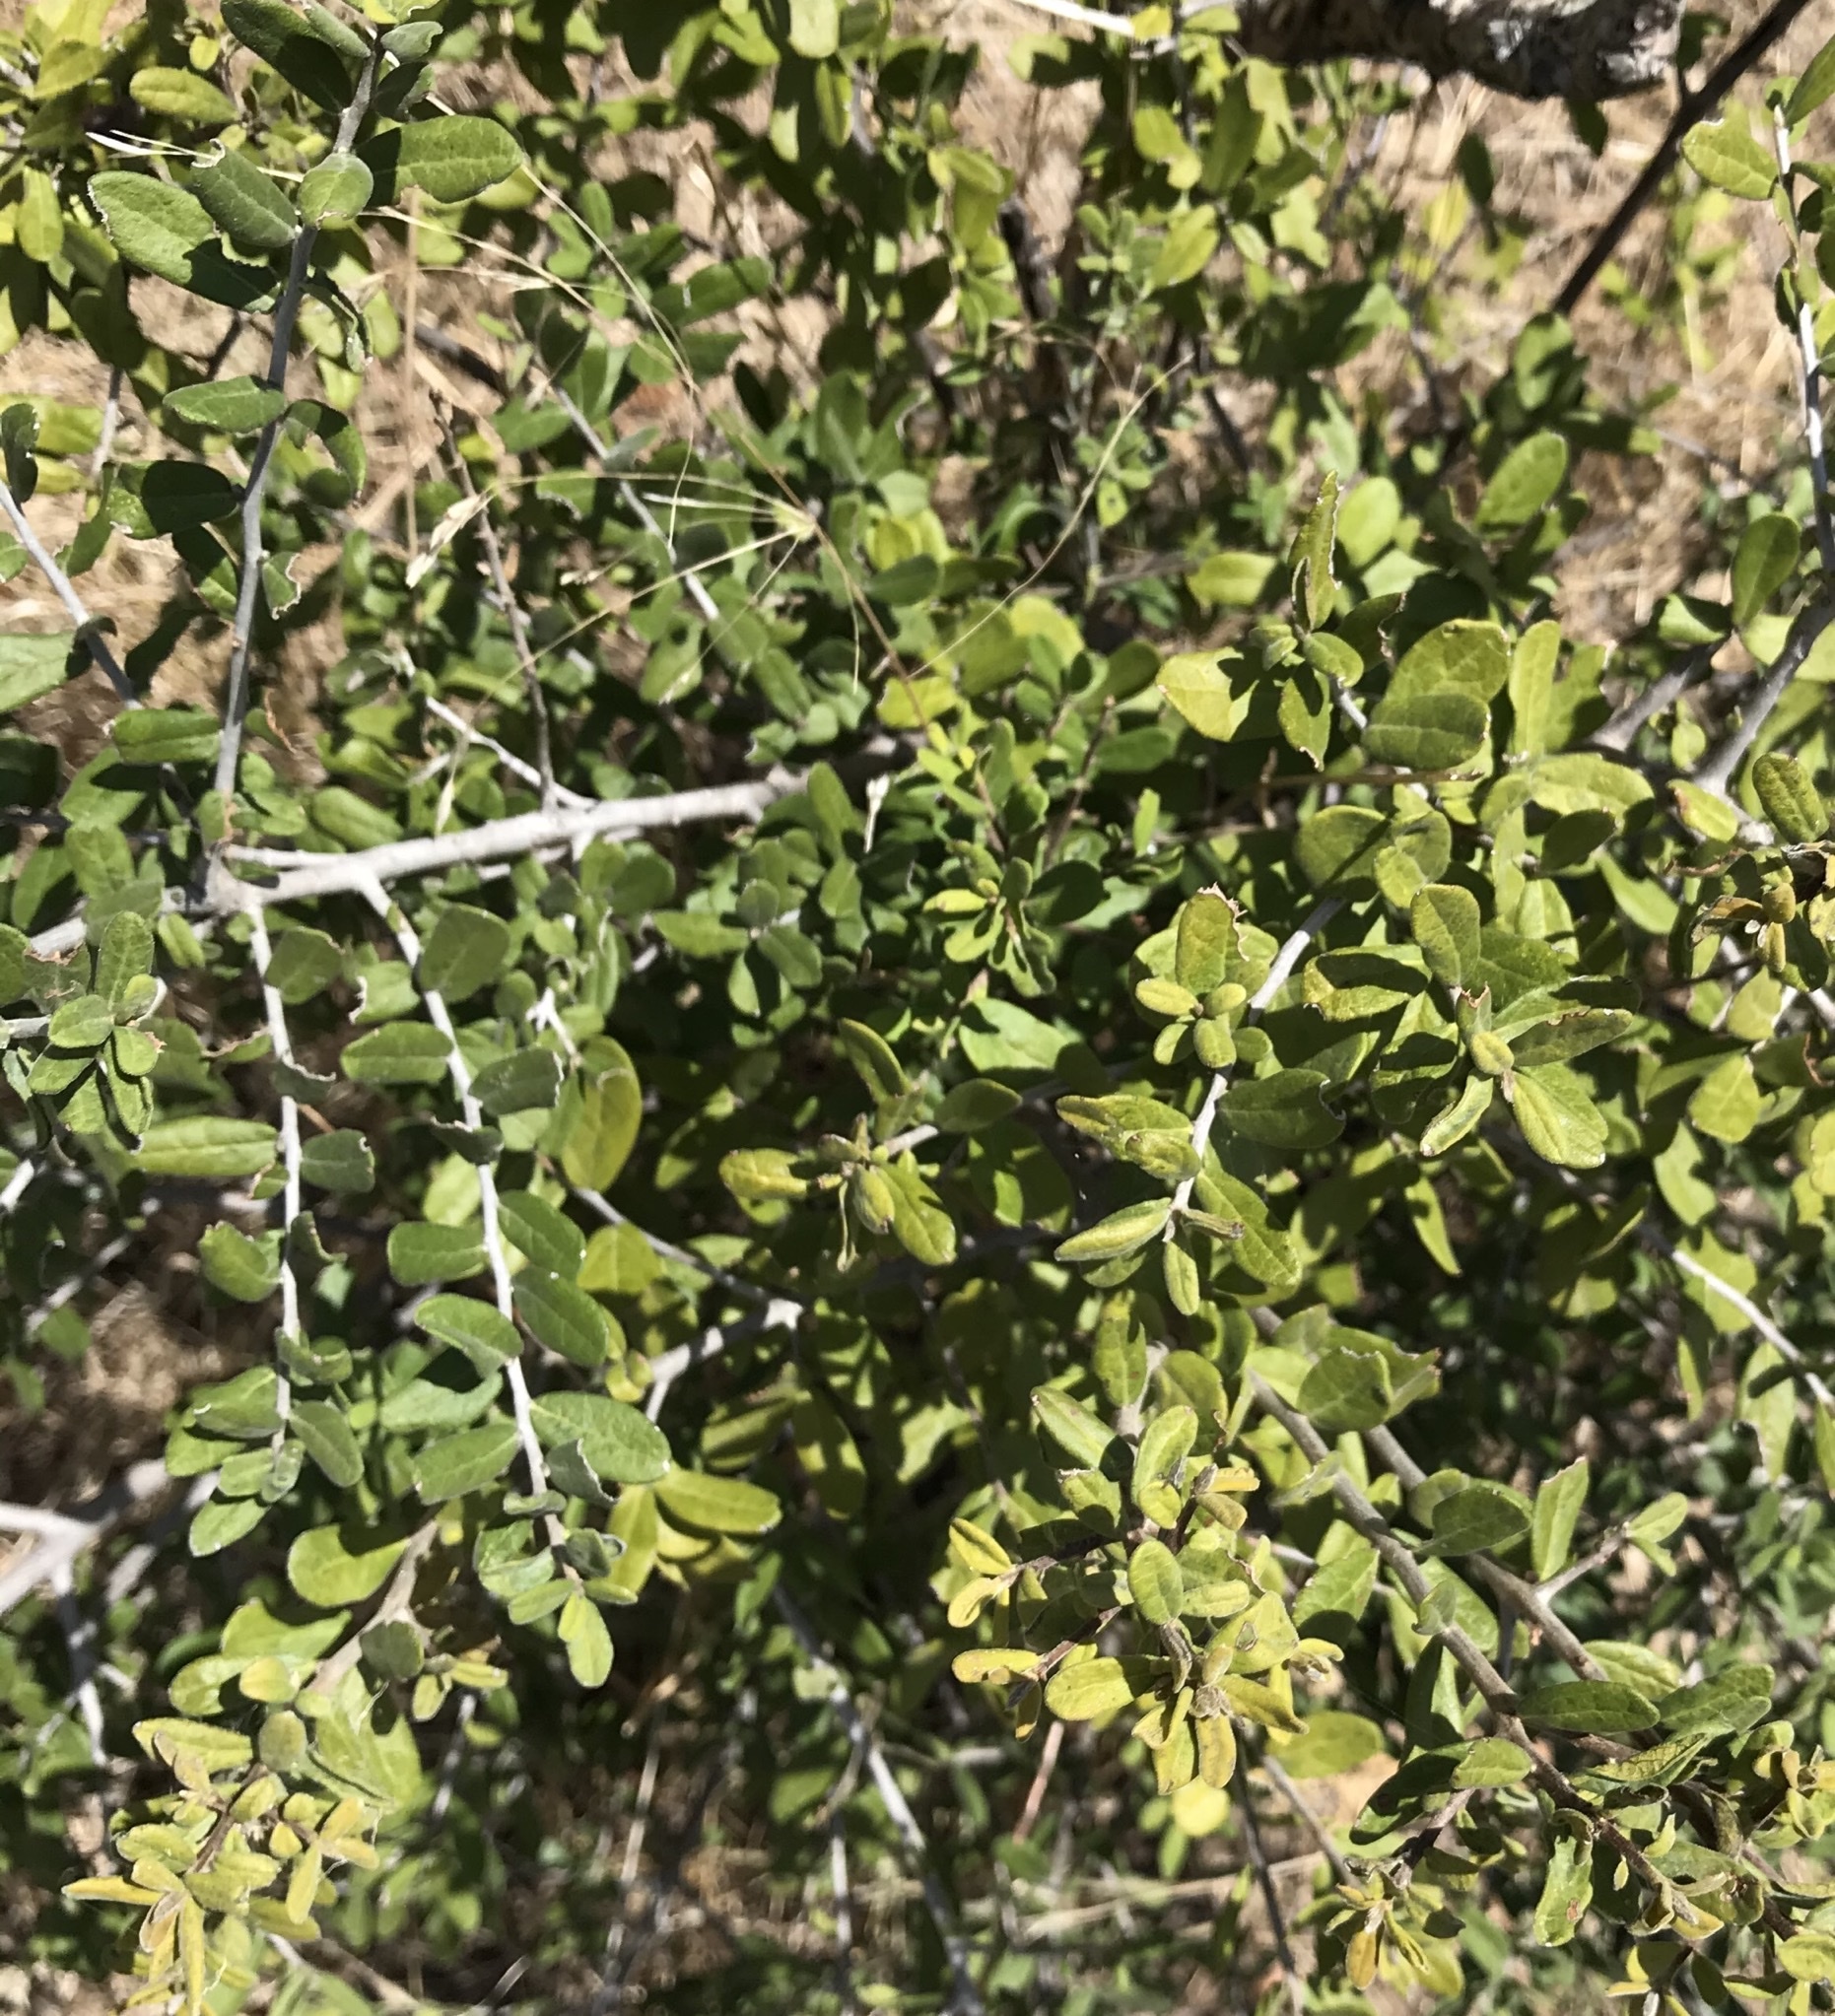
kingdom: Plantae
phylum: Tracheophyta
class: Magnoliopsida
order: Ericales
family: Ebenaceae
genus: Diospyros
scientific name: Diospyros texana
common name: Texas persimmon
